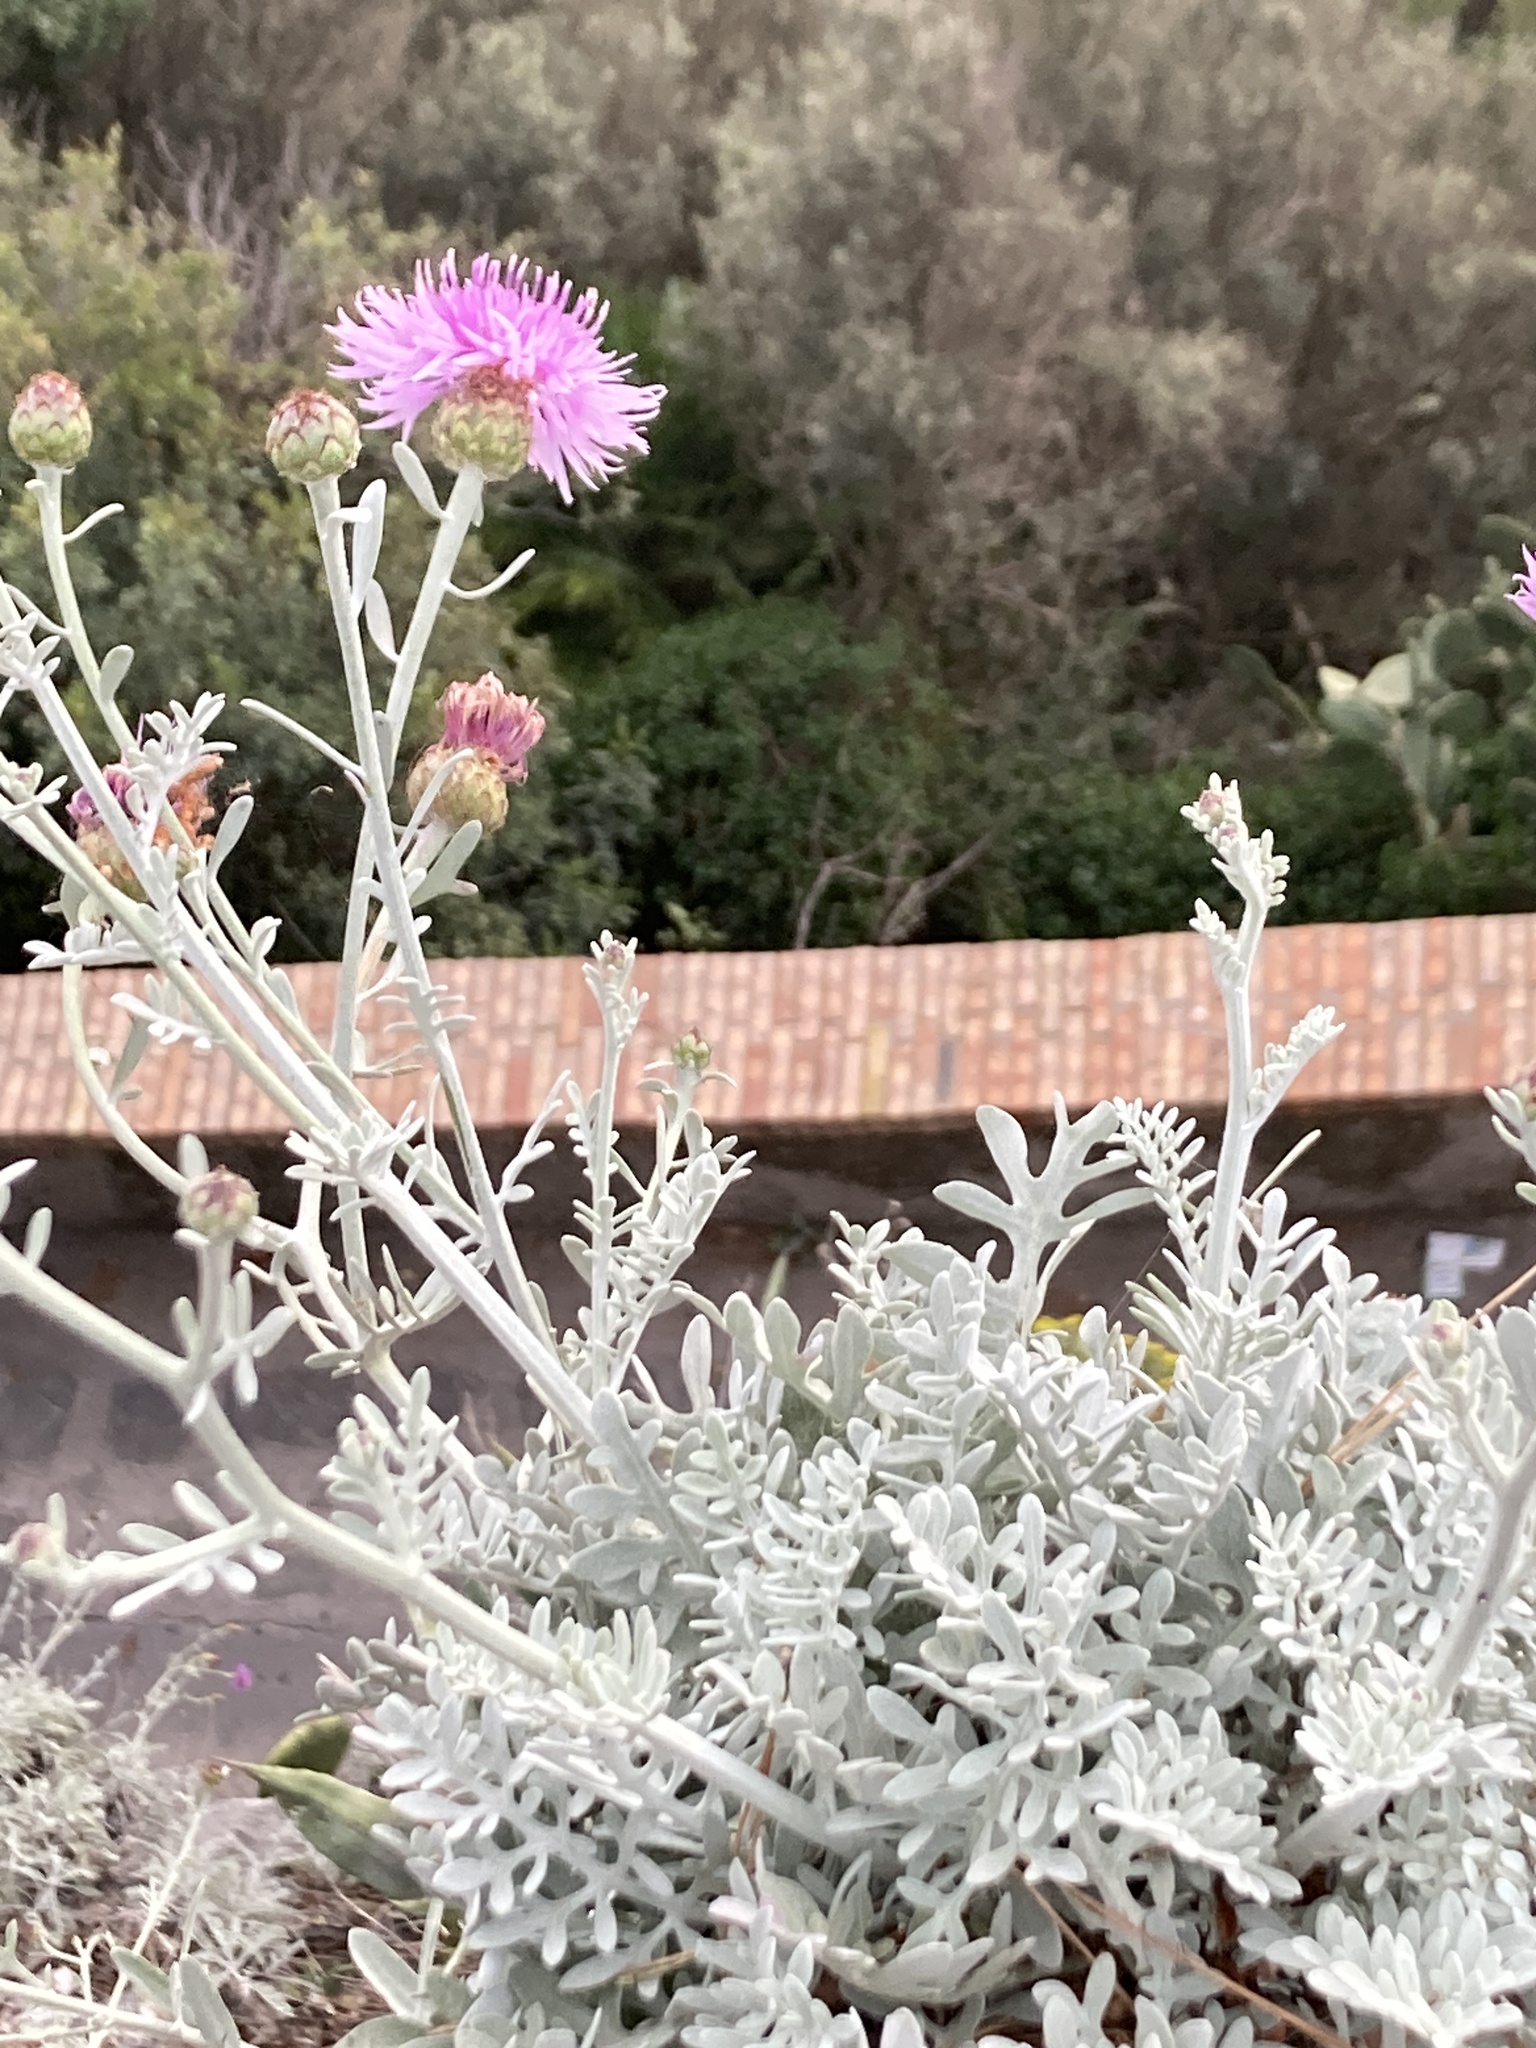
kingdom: Plantae
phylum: Tracheophyta
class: Magnoliopsida
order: Asterales
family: Asteraceae
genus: Centaurea
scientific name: Centaurea cineraria
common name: Dusty miller
